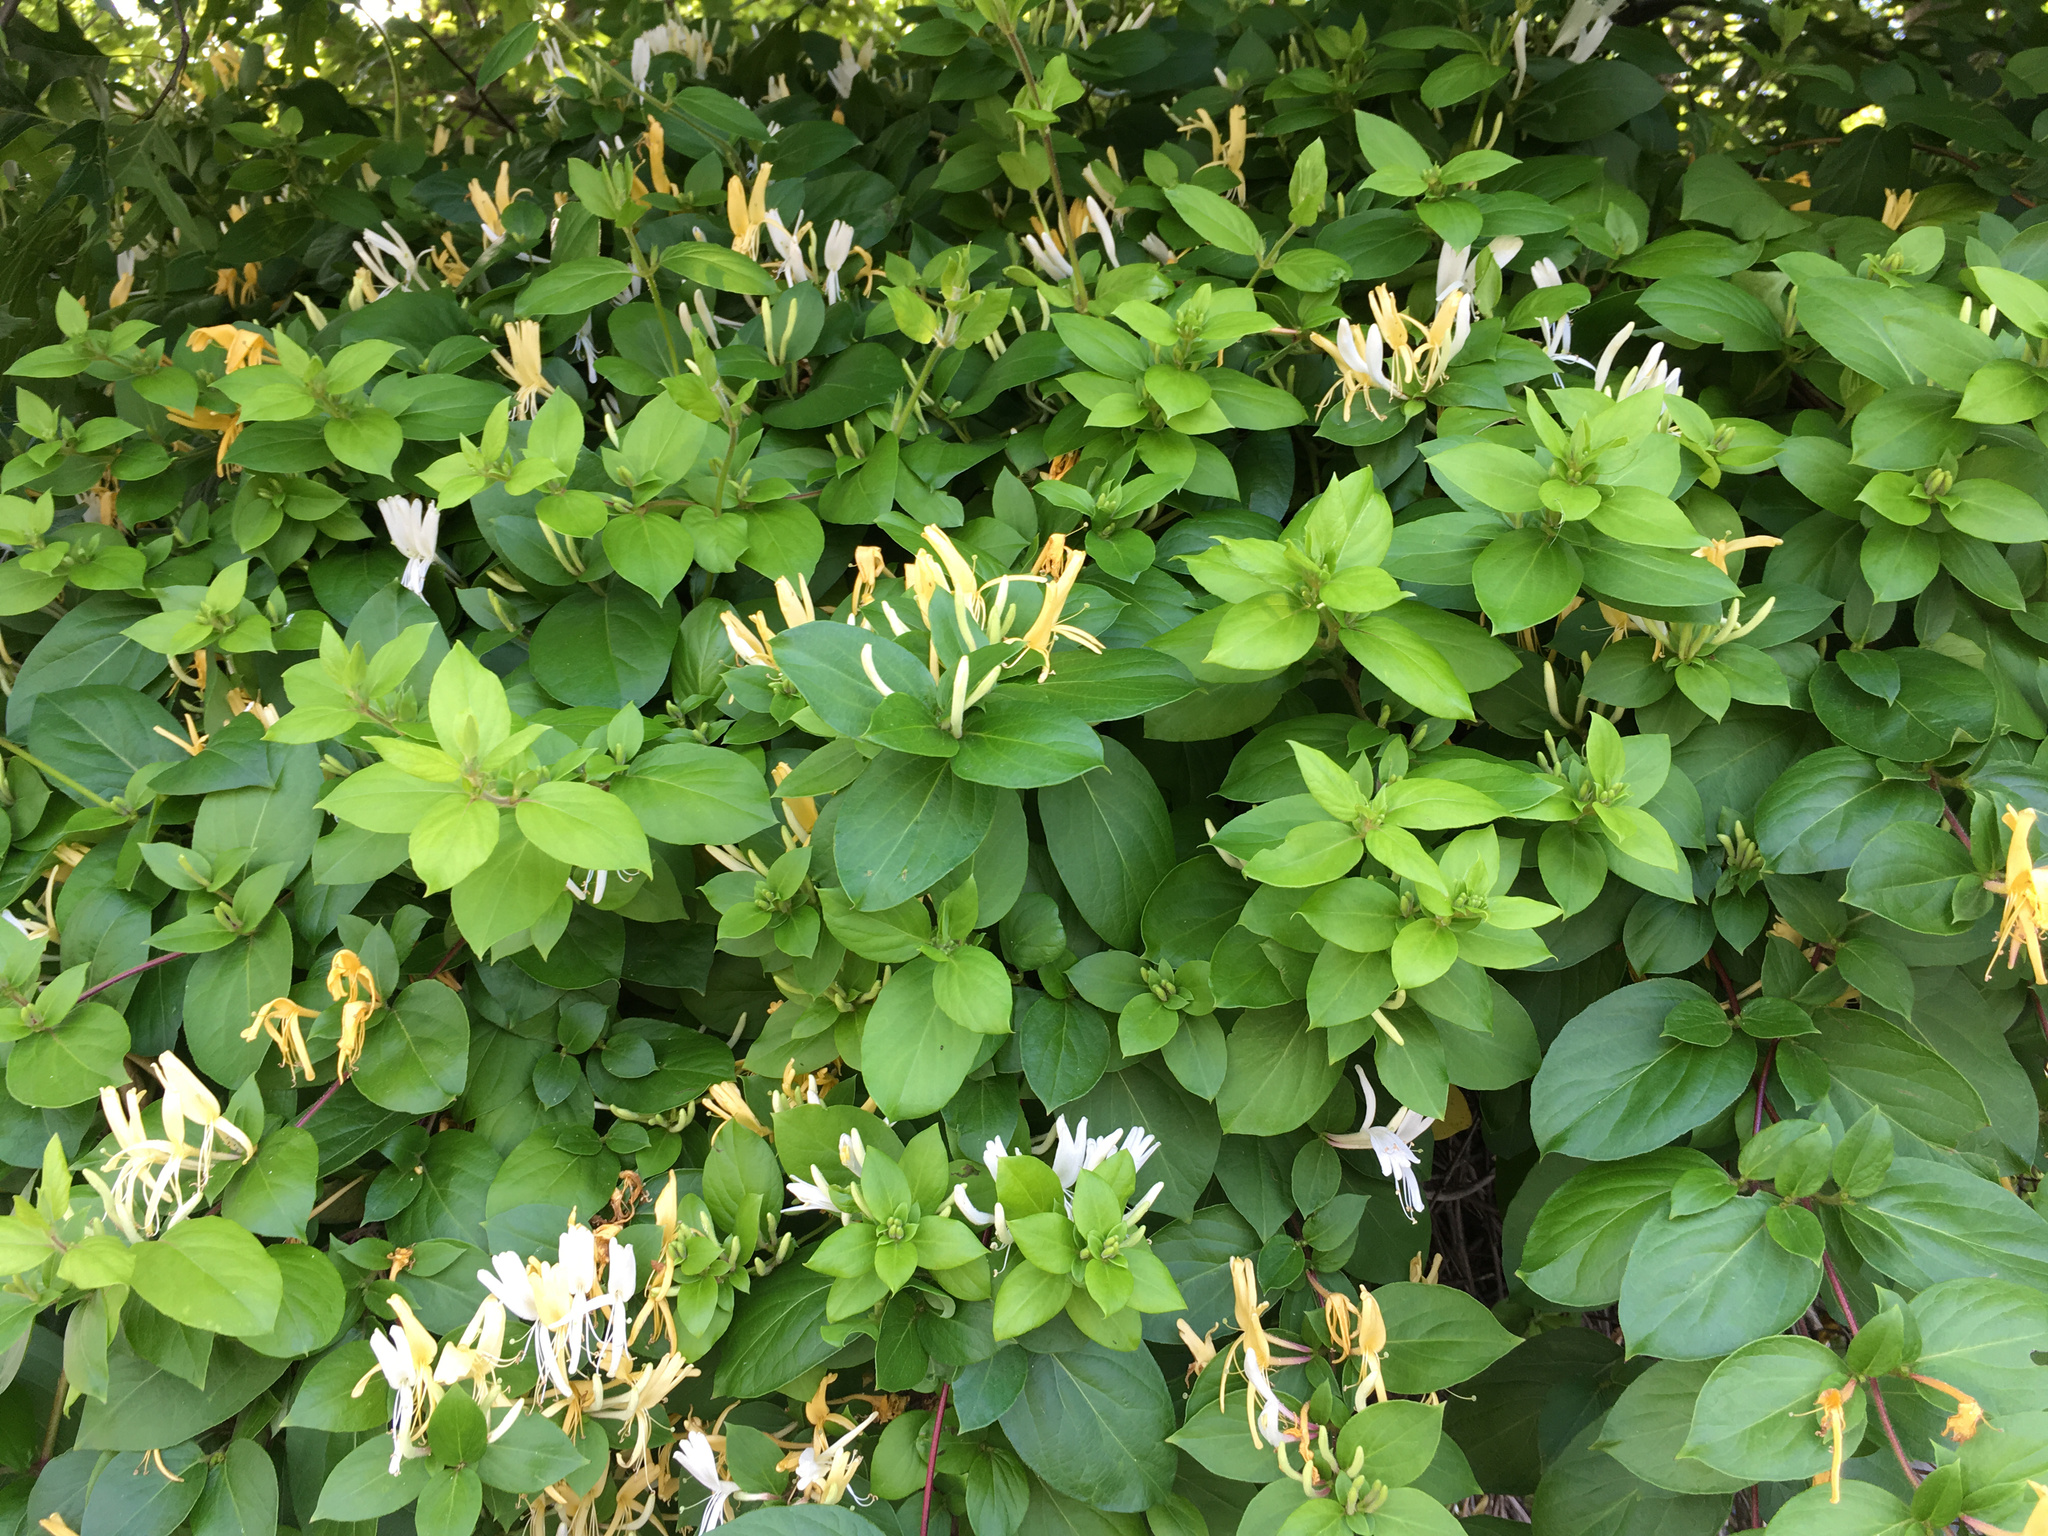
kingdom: Plantae
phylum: Tracheophyta
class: Magnoliopsida
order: Dipsacales
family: Caprifoliaceae
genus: Lonicera
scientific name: Lonicera japonica
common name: Japanese honeysuckle
